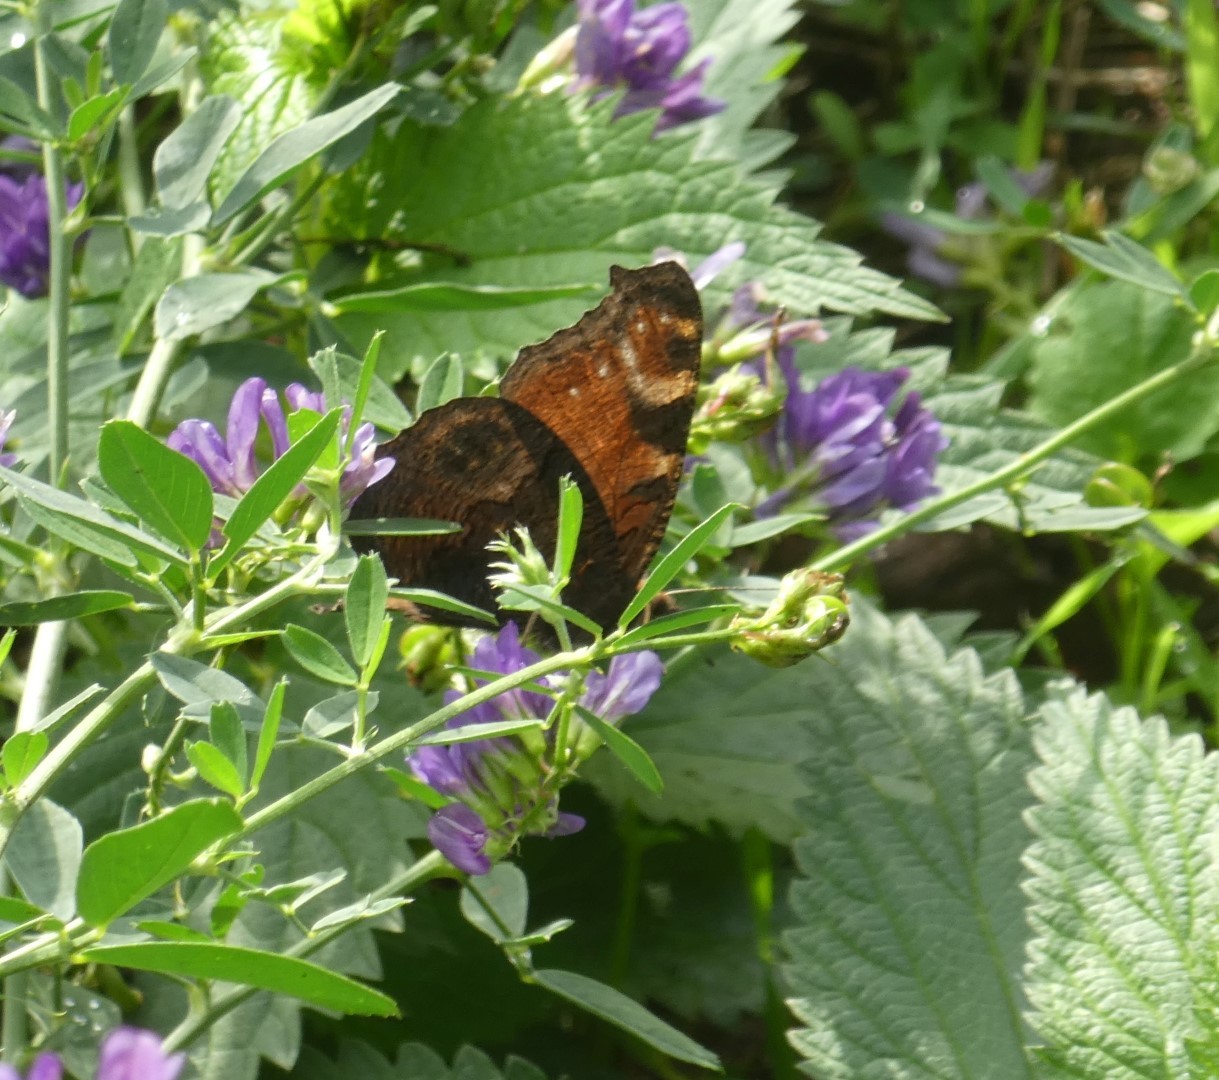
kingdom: Animalia
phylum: Arthropoda
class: Insecta
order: Lepidoptera
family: Nymphalidae
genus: Aglais
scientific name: Aglais io
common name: Peacock
